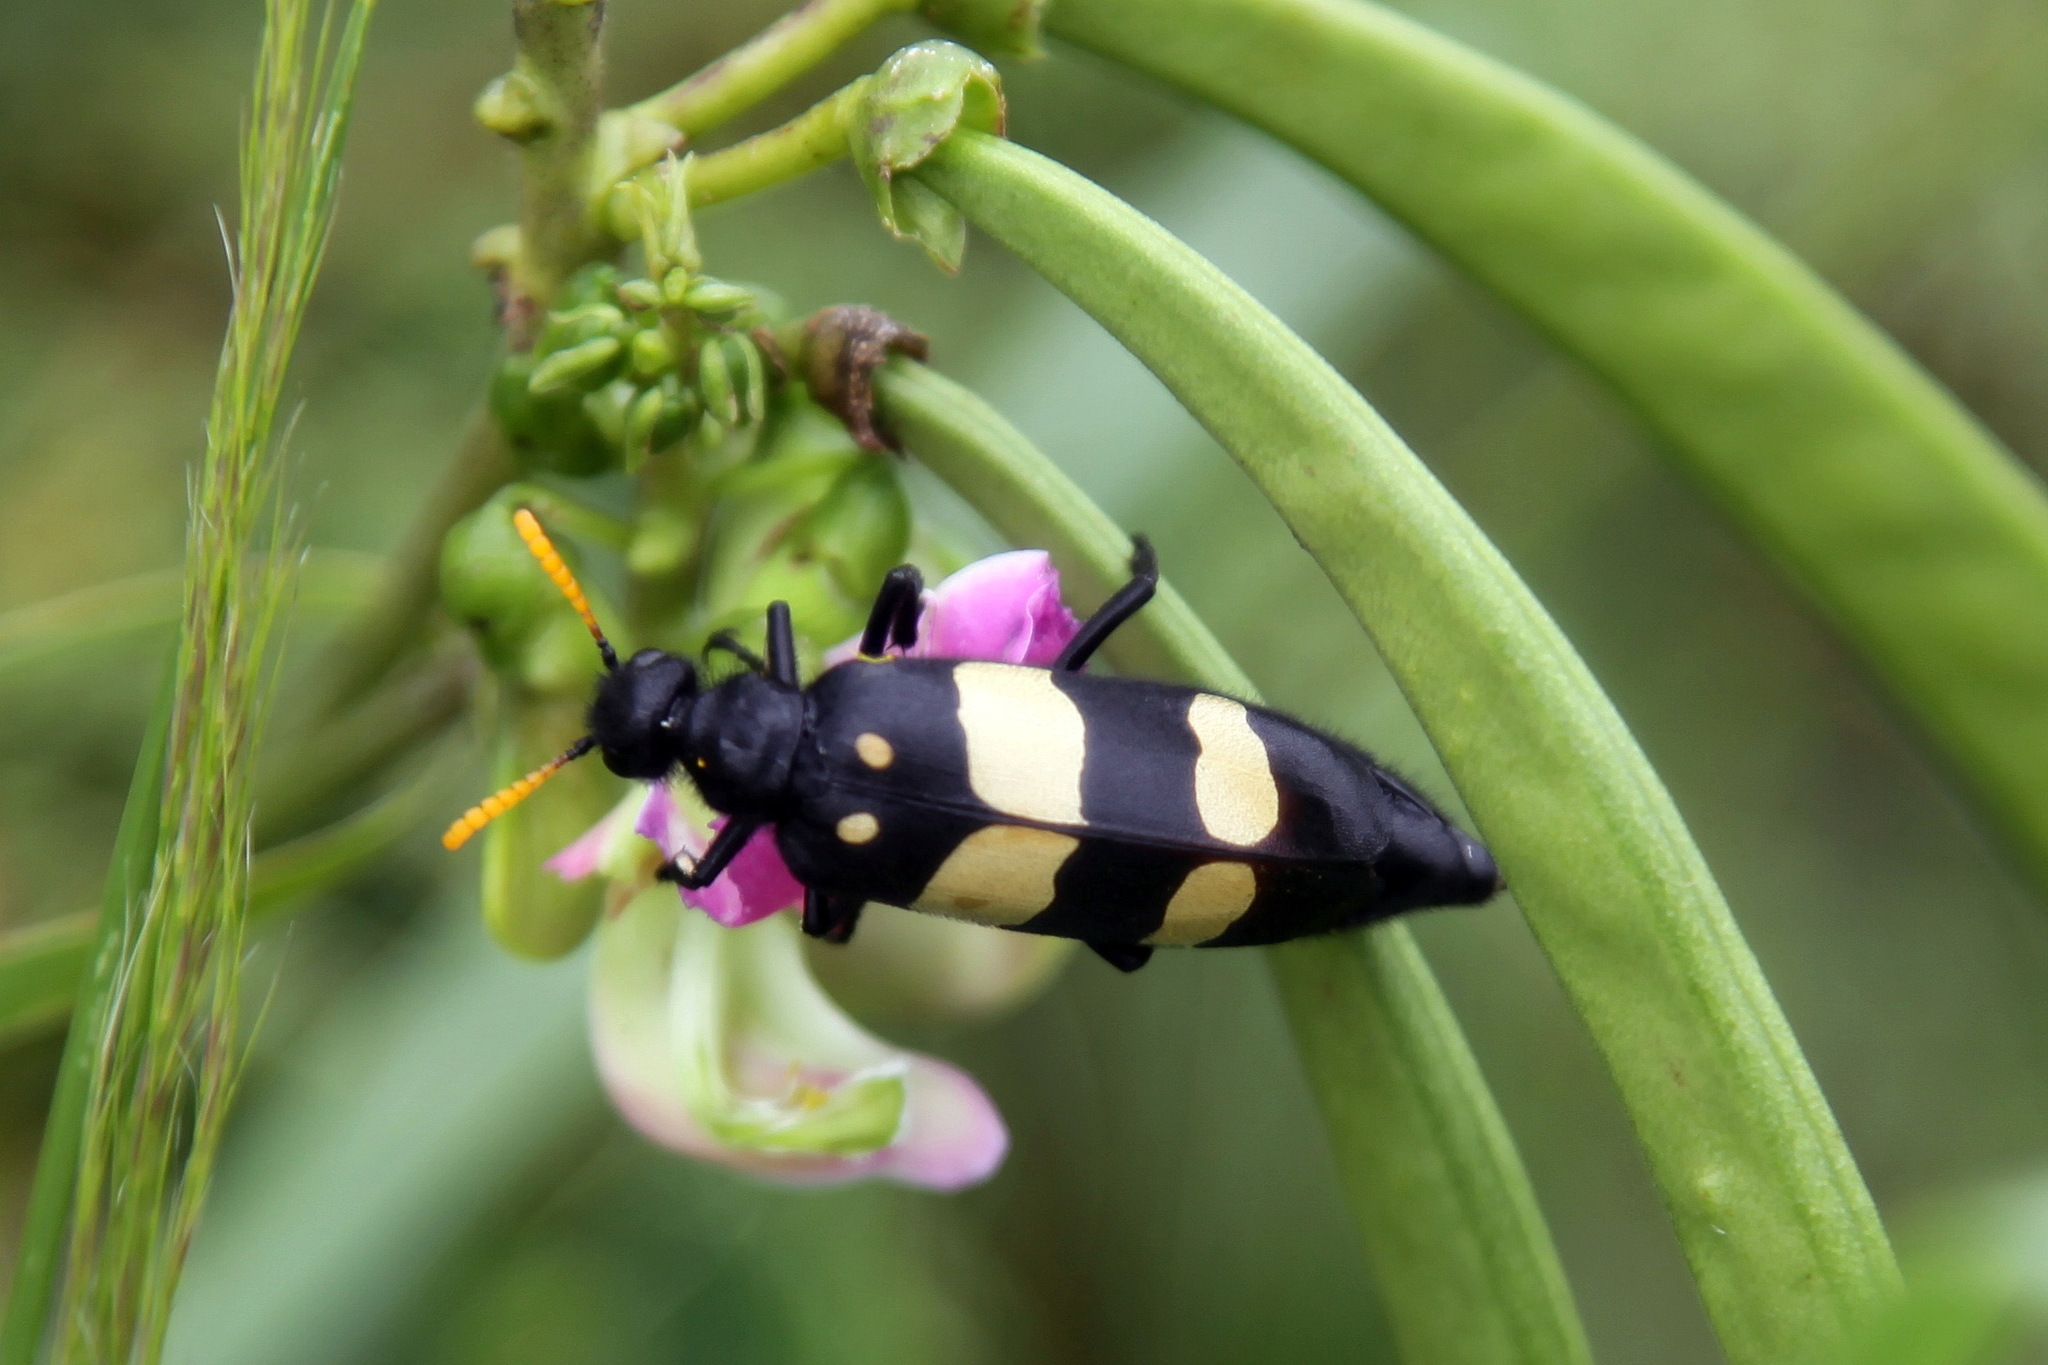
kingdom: Animalia
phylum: Arthropoda
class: Insecta
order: Coleoptera
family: Meloidae
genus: Hycleus
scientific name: Hycleus
